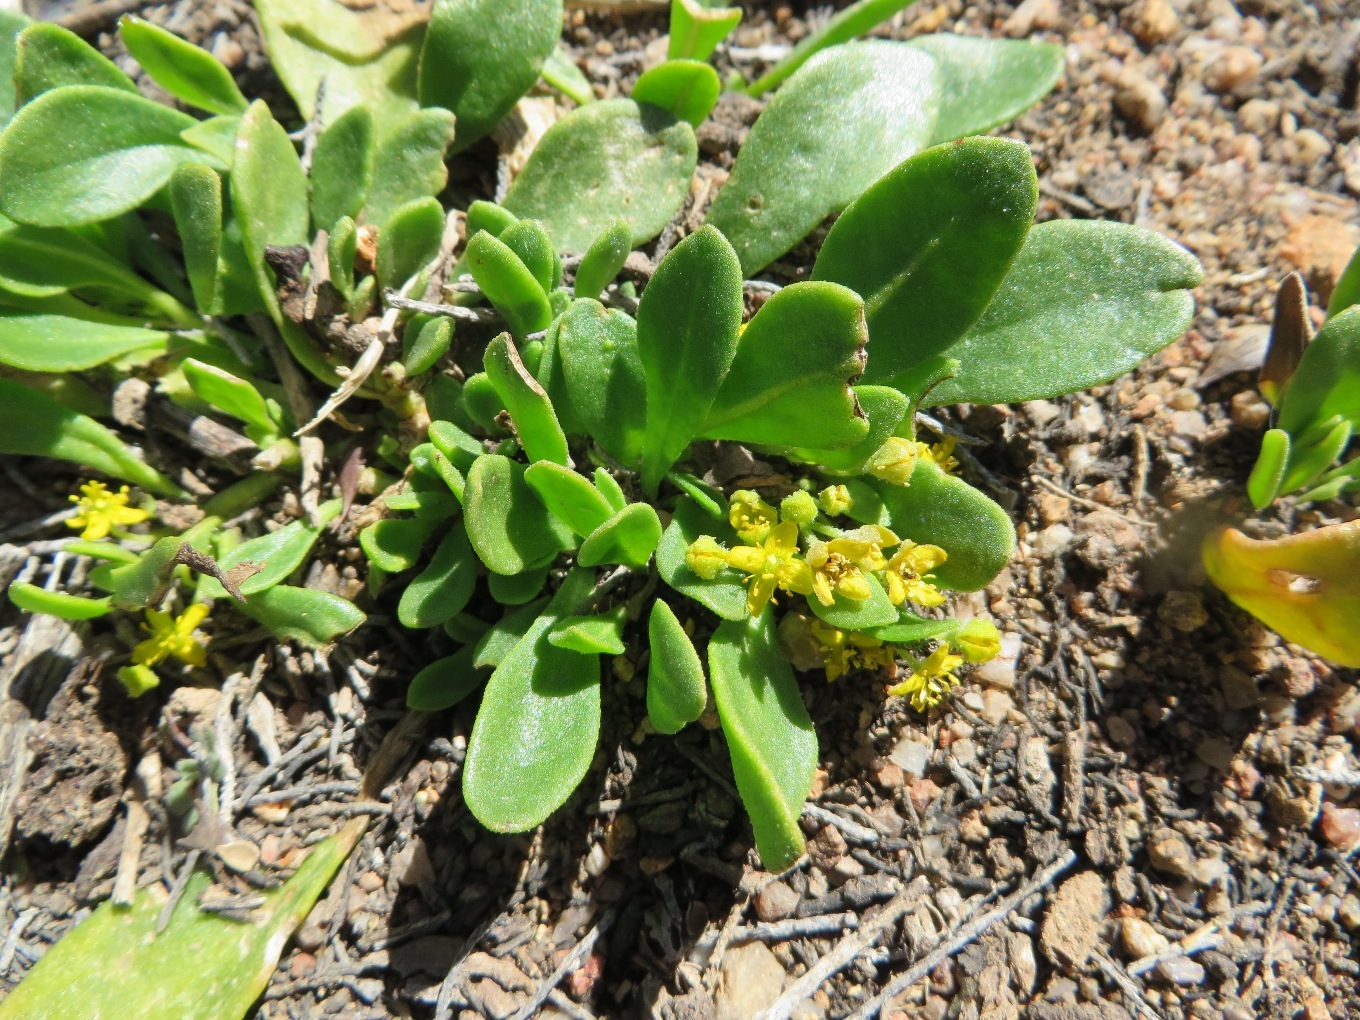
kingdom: Plantae
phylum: Tracheophyta
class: Magnoliopsida
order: Caryophyllales
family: Aizoaceae
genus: Tetragonia
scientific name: Tetragonia nigrescens
